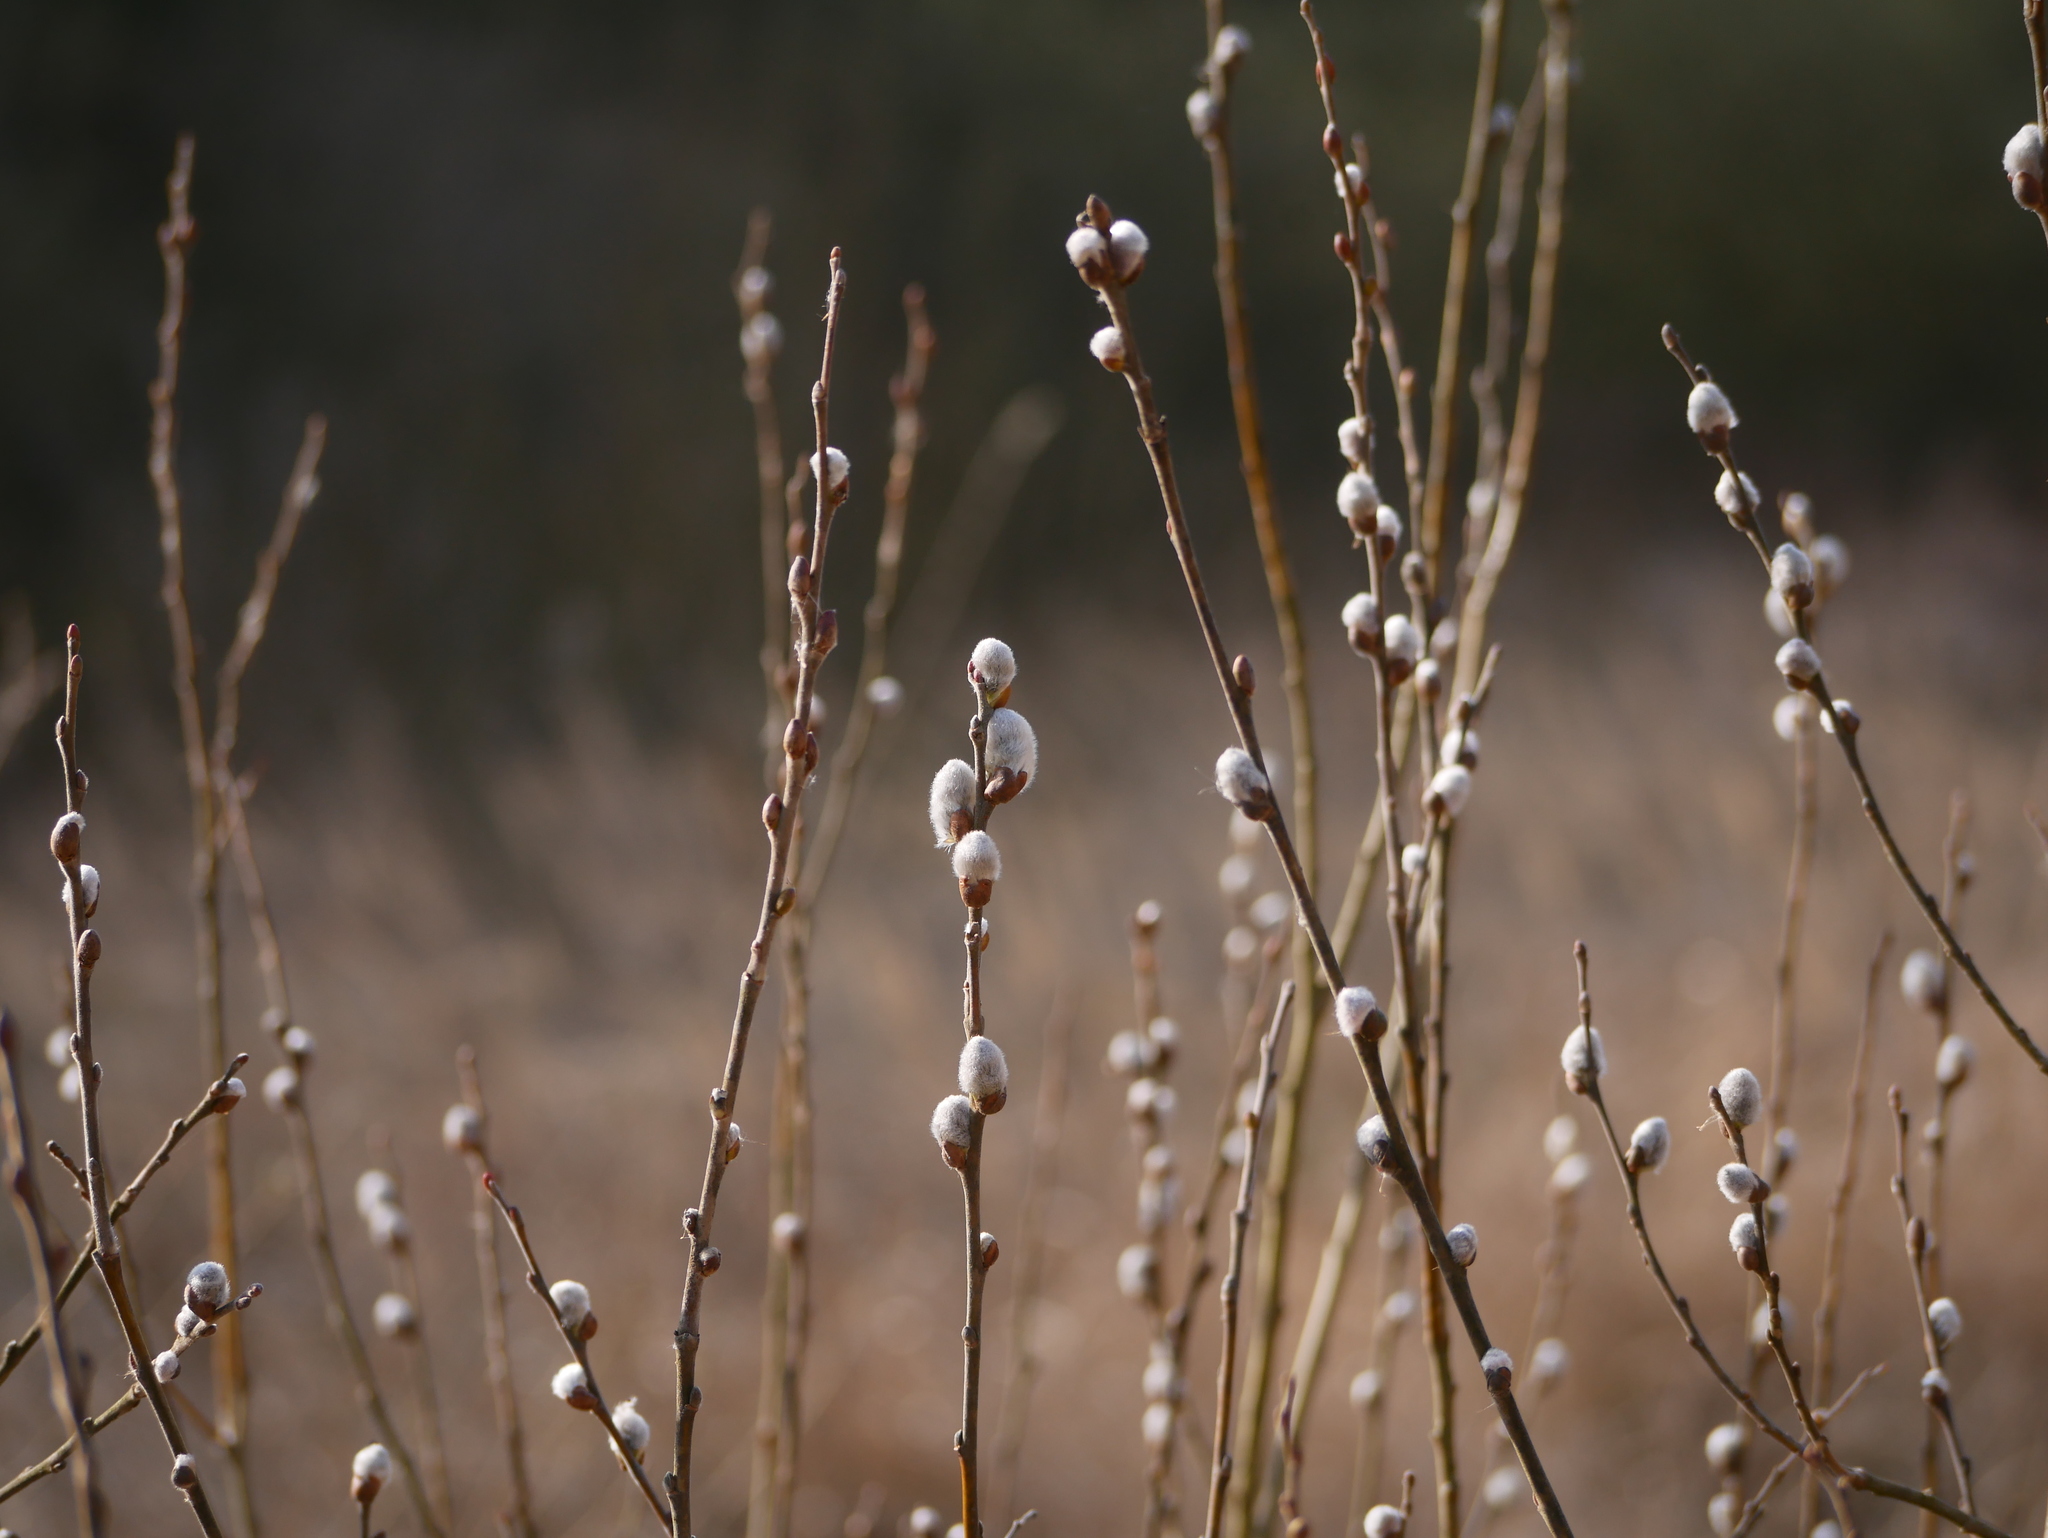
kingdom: Plantae
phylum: Tracheophyta
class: Magnoliopsida
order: Malpighiales
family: Salicaceae
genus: Salix
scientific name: Salix caprea
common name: Goat willow
